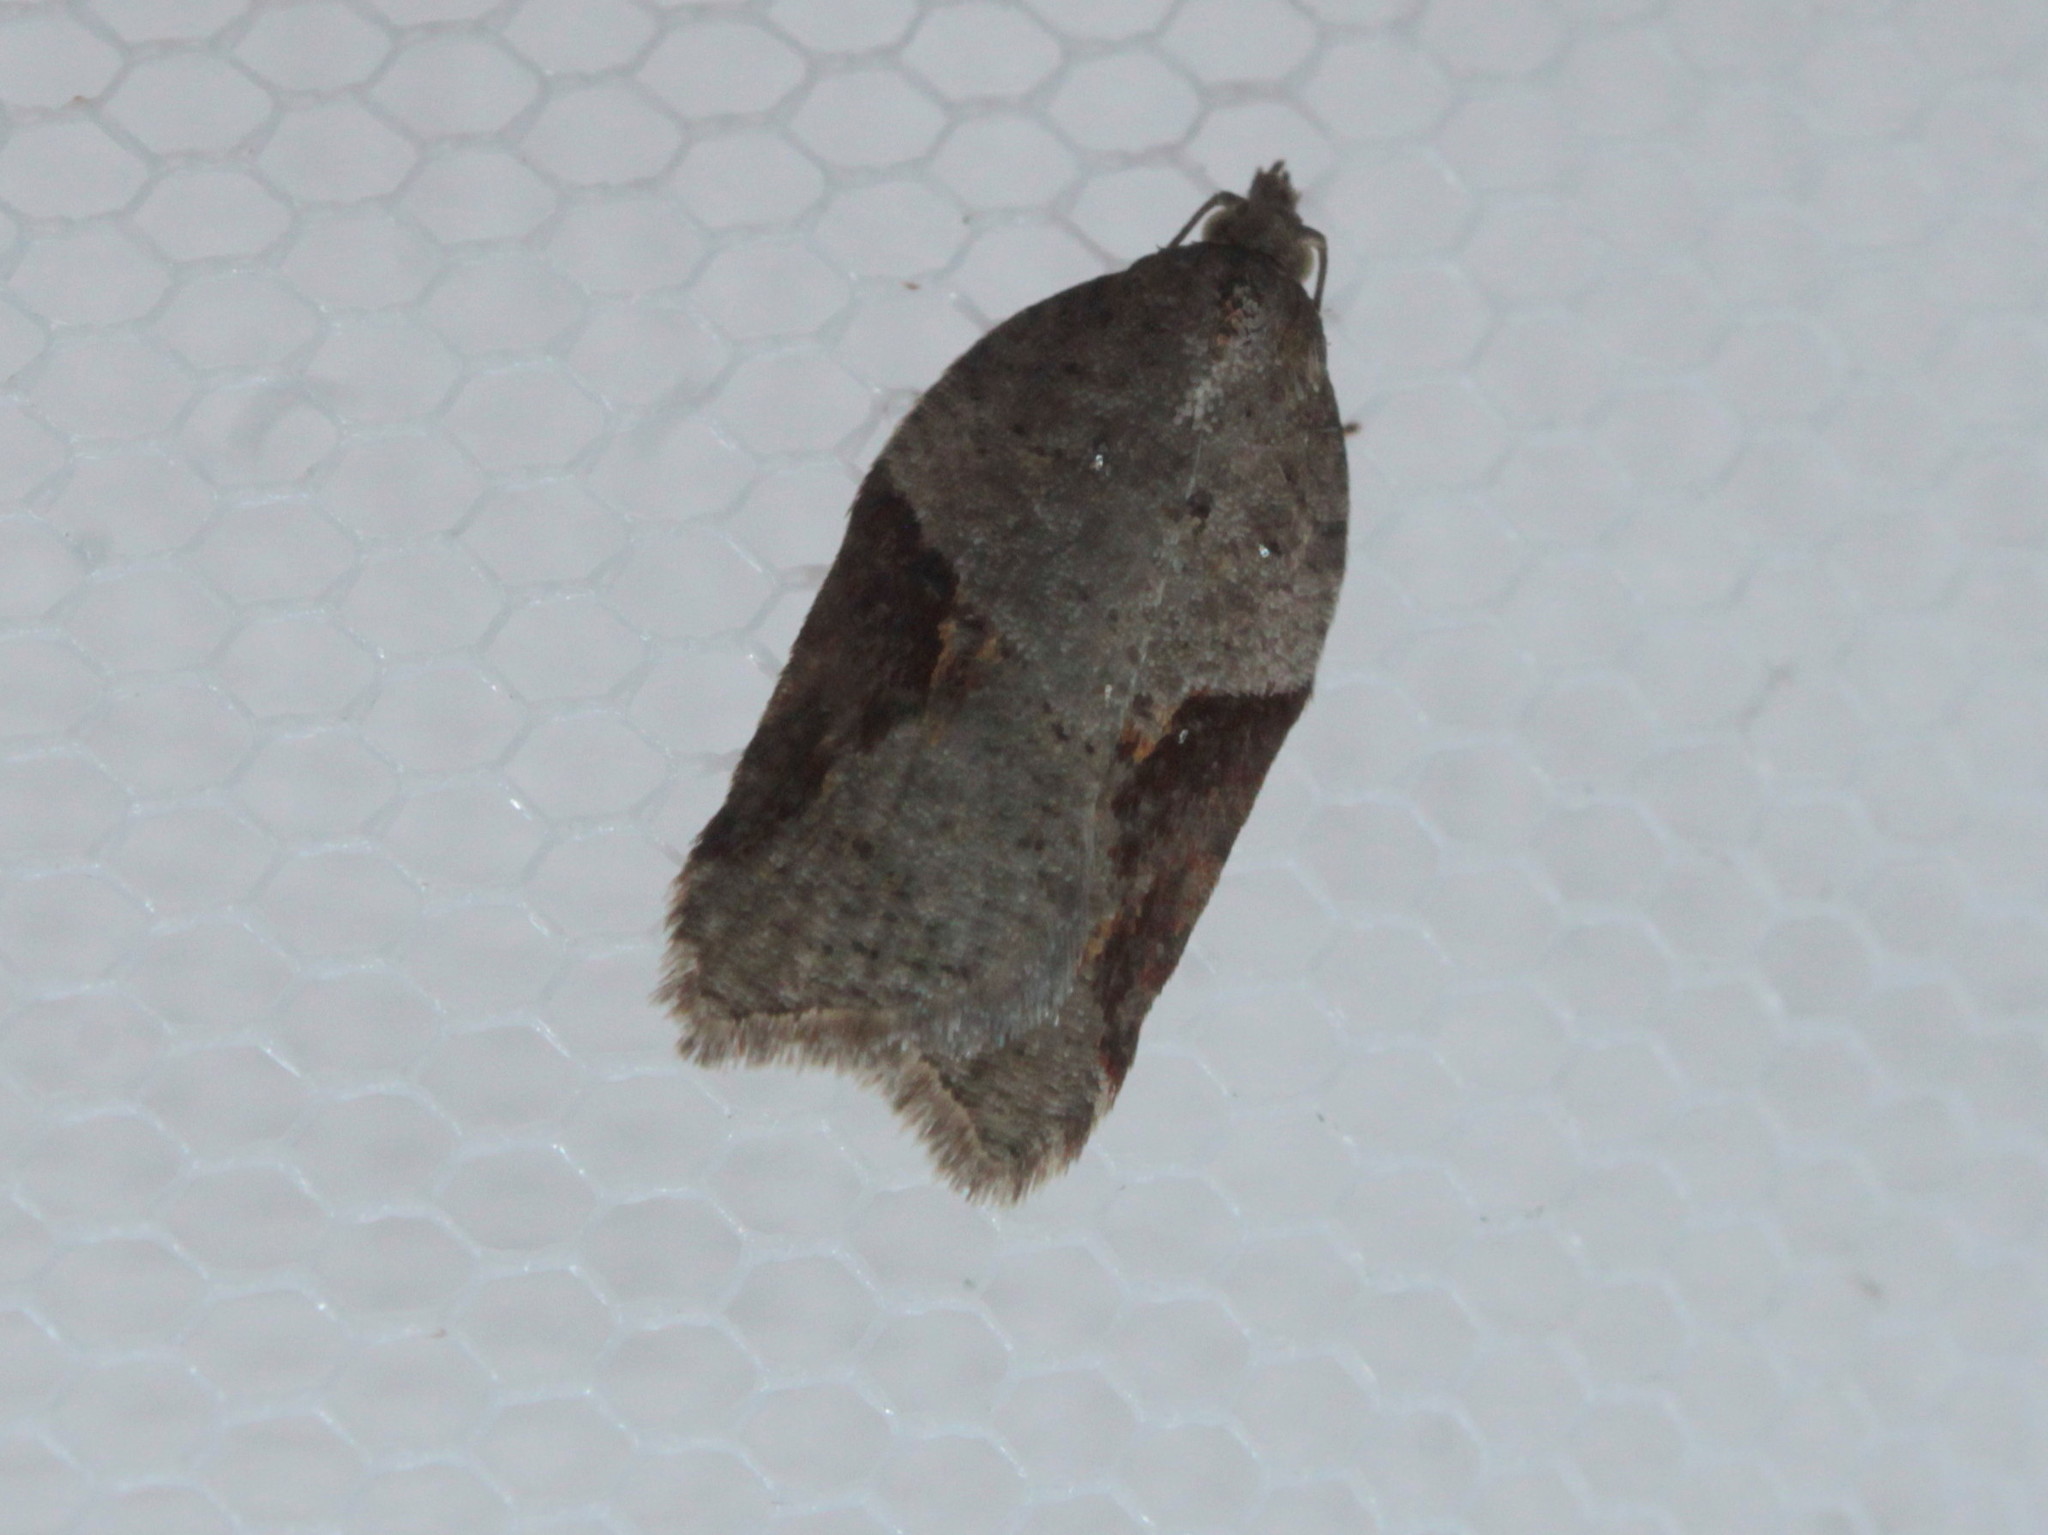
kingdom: Animalia
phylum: Arthropoda
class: Insecta
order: Lepidoptera
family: Tortricidae
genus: Acleris
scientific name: Acleris macdunnoughi
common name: Macdunnough's acleris
